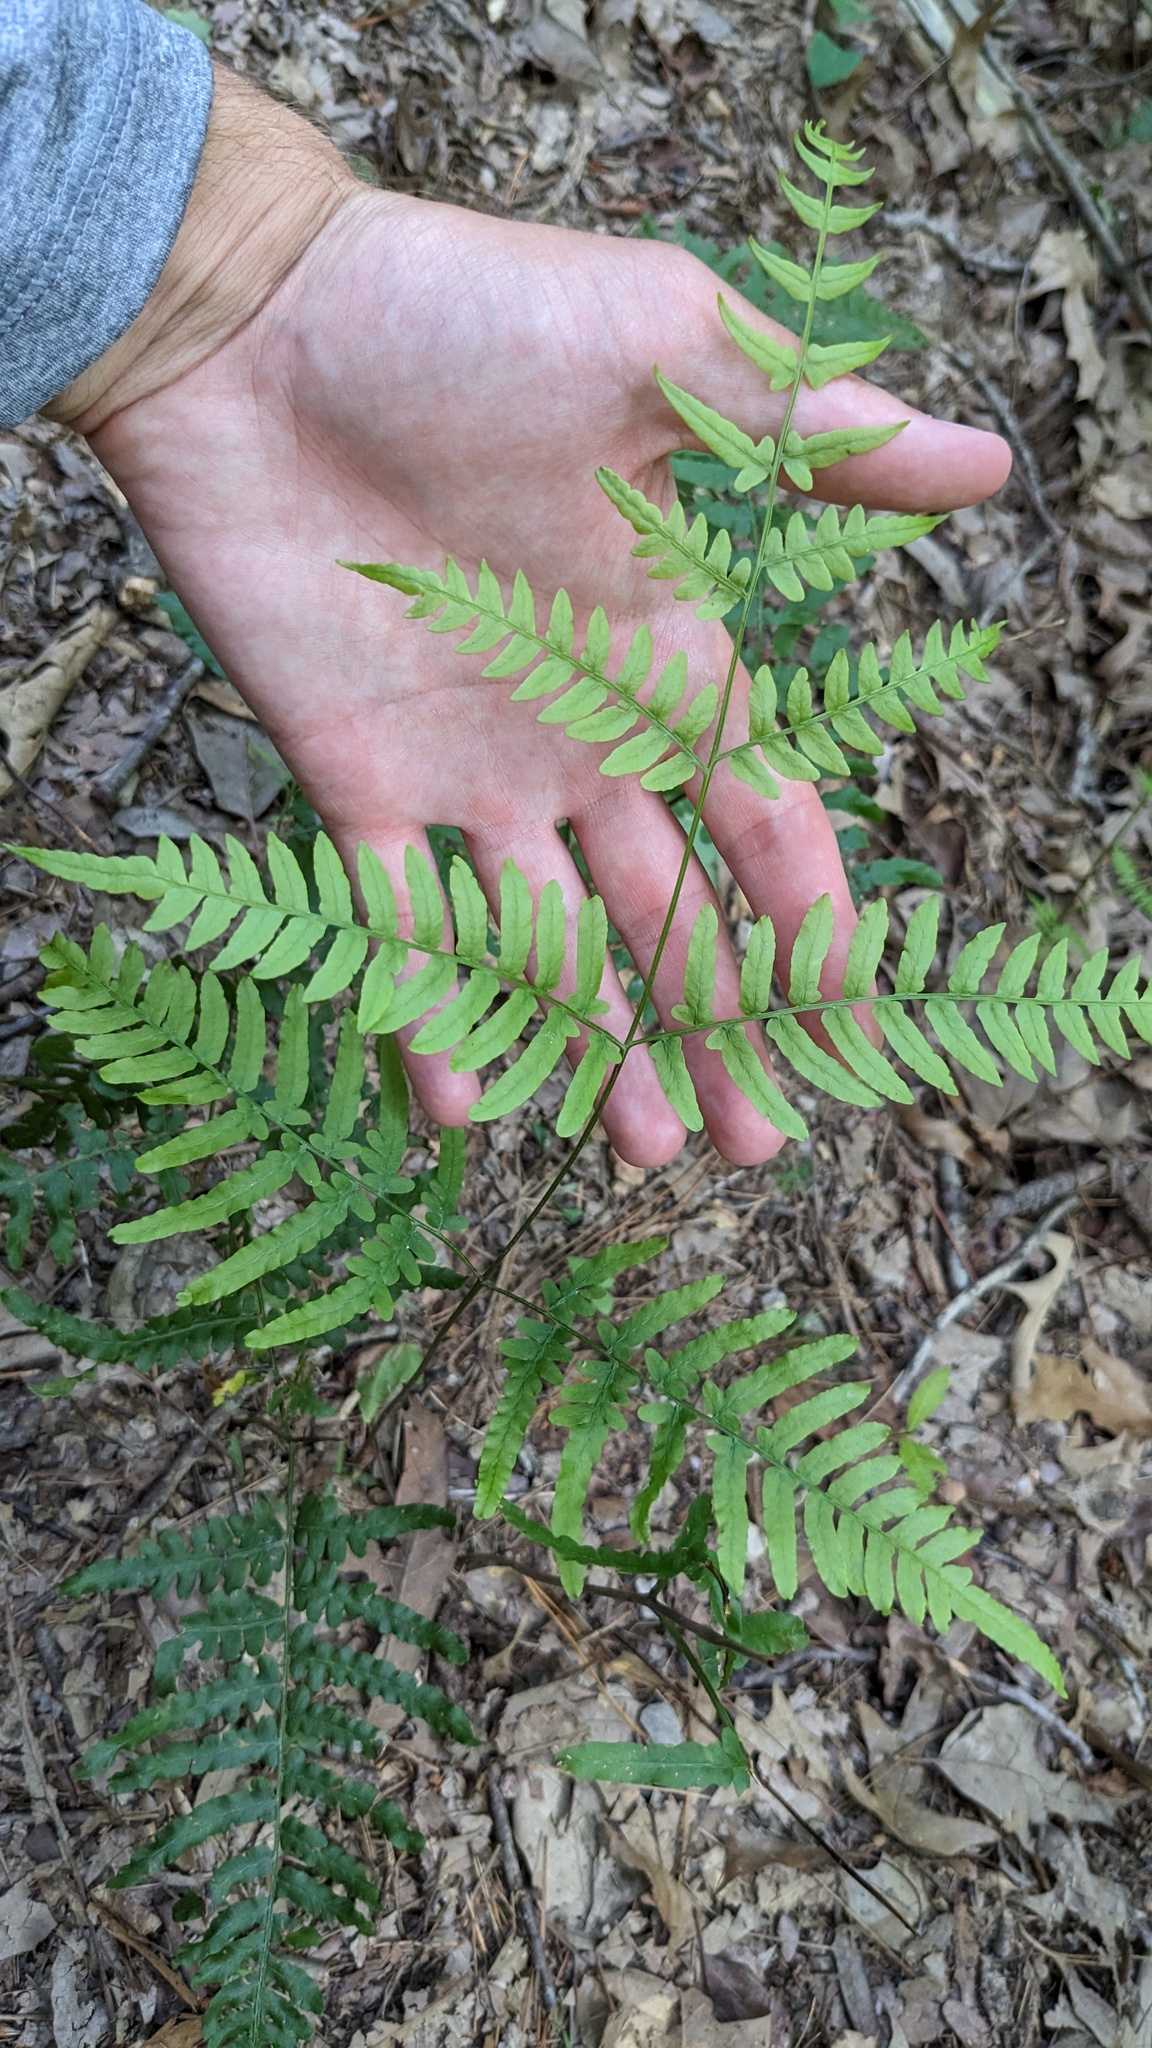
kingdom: Plantae
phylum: Tracheophyta
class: Polypodiopsida
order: Polypodiales
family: Dennstaedtiaceae
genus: Pteridium
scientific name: Pteridium aquilinum
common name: Bracken
